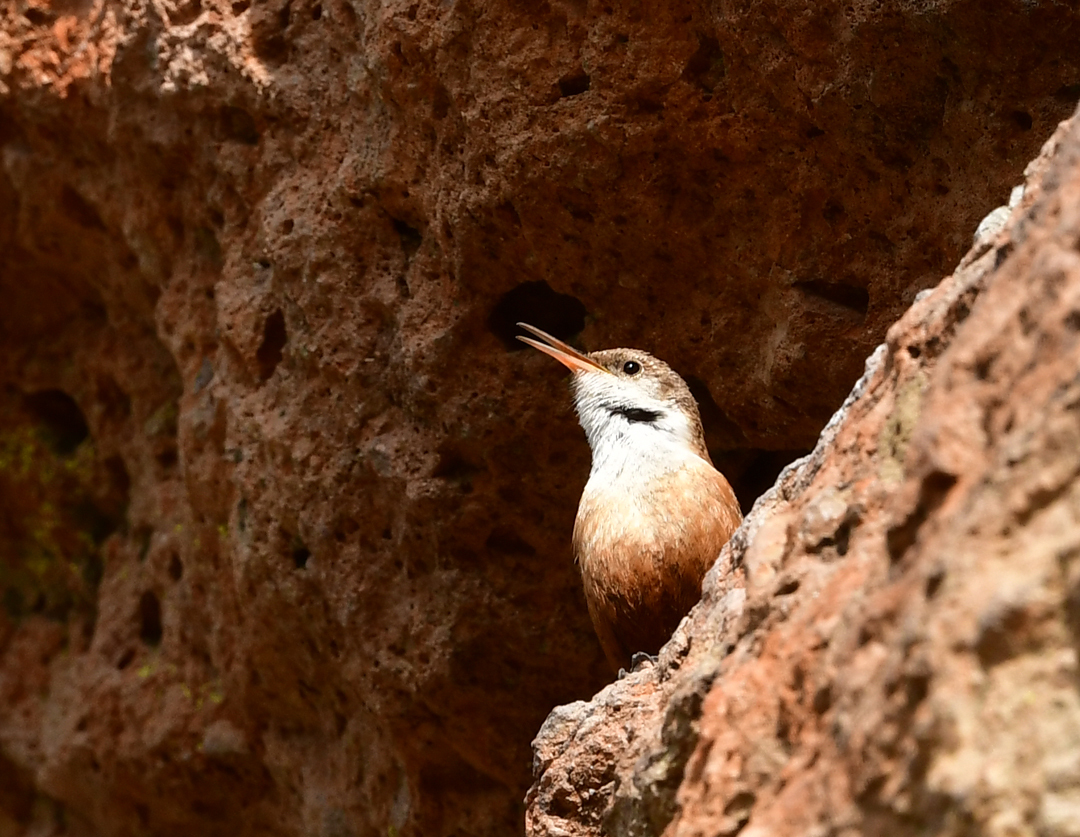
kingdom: Animalia
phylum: Chordata
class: Aves
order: Passeriformes
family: Troglodytidae
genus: Catherpes
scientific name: Catherpes mexicanus
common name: Canyon wren
